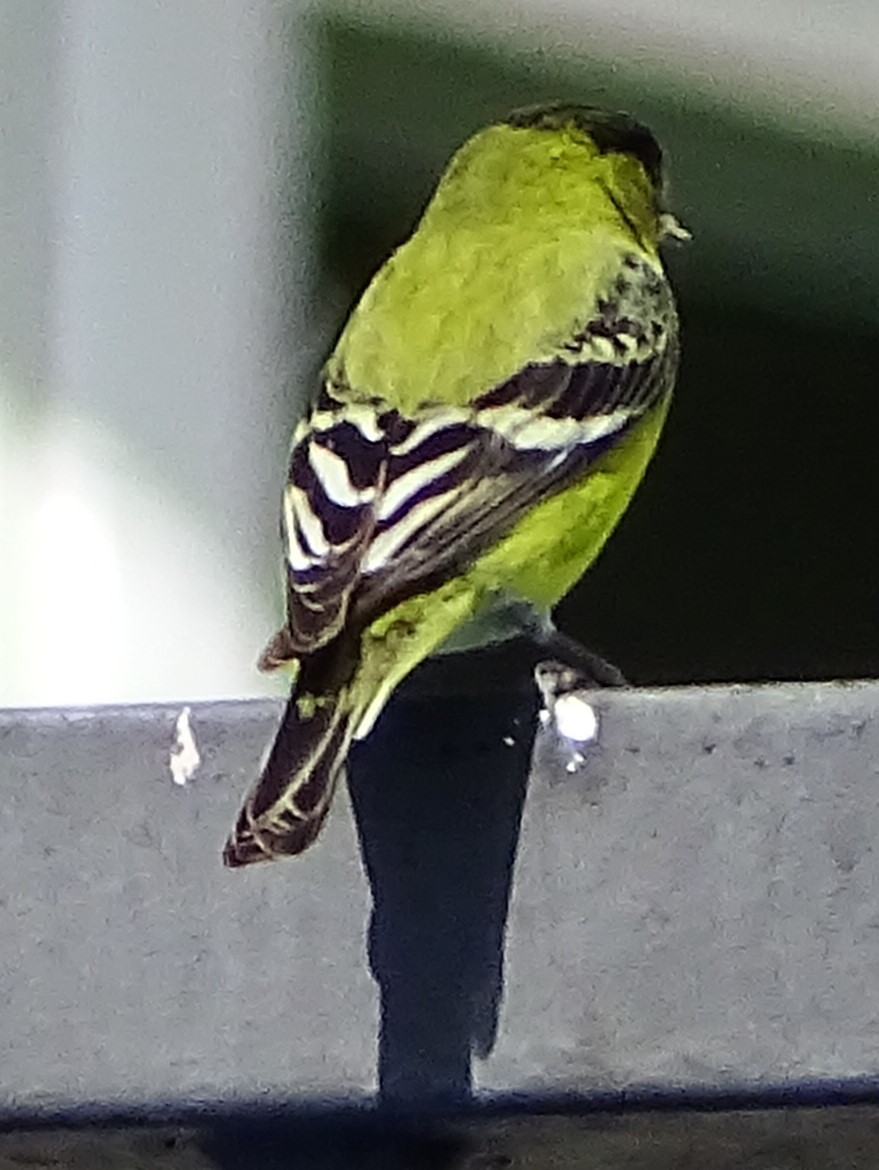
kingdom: Animalia
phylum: Chordata
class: Aves
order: Passeriformes
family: Fringillidae
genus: Spinus
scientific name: Spinus psaltria
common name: Lesser goldfinch
